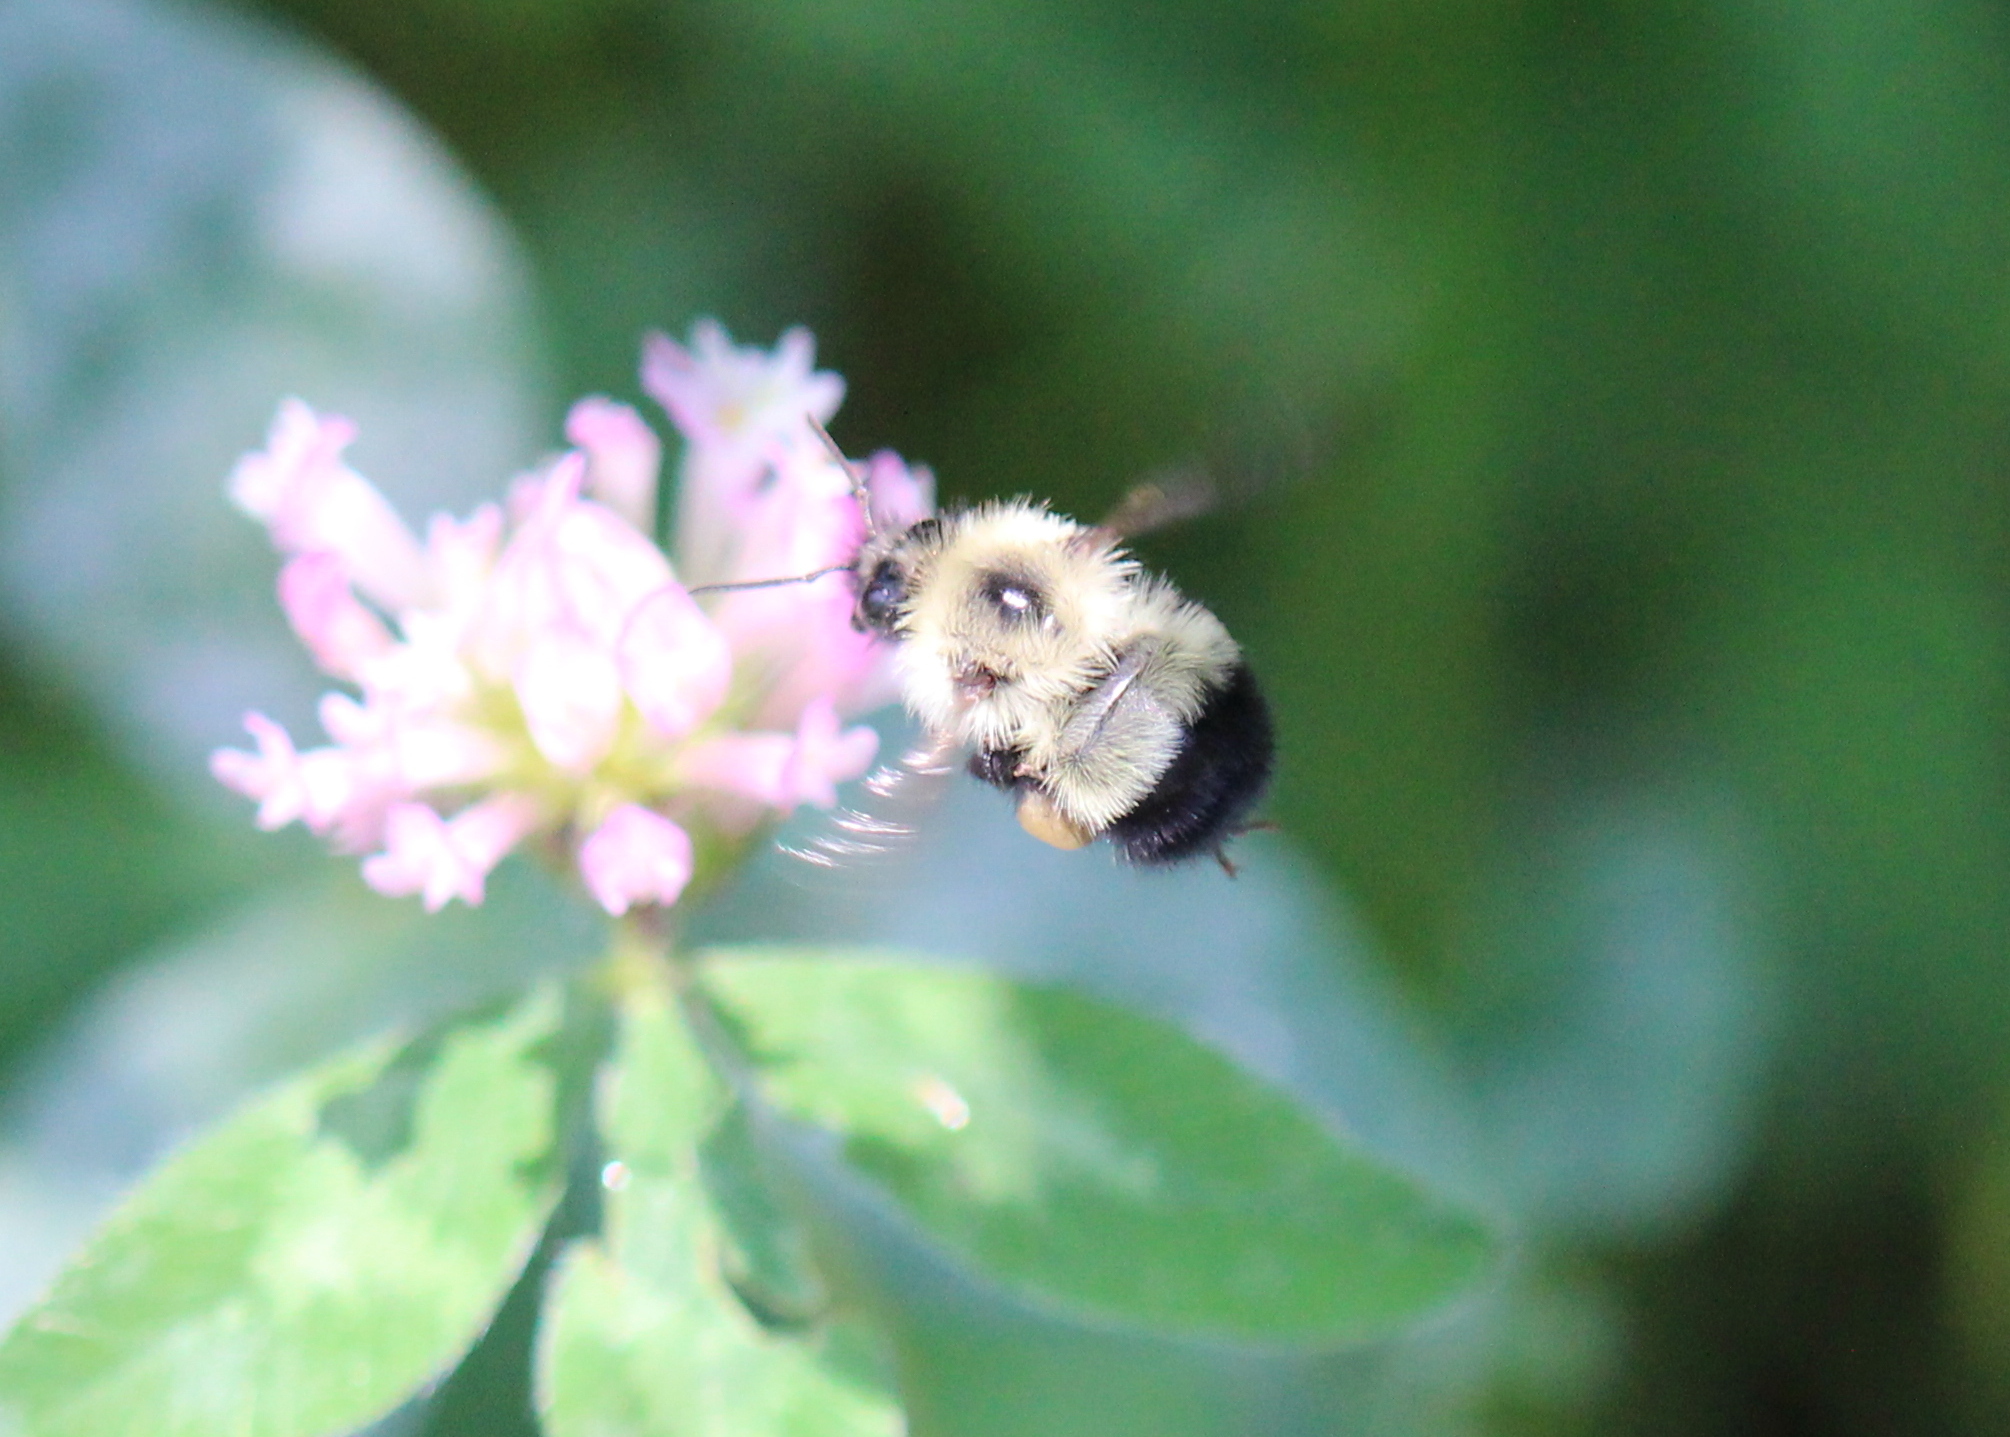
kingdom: Animalia
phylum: Arthropoda
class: Insecta
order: Hymenoptera
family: Apidae
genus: Pyrobombus
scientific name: Pyrobombus
